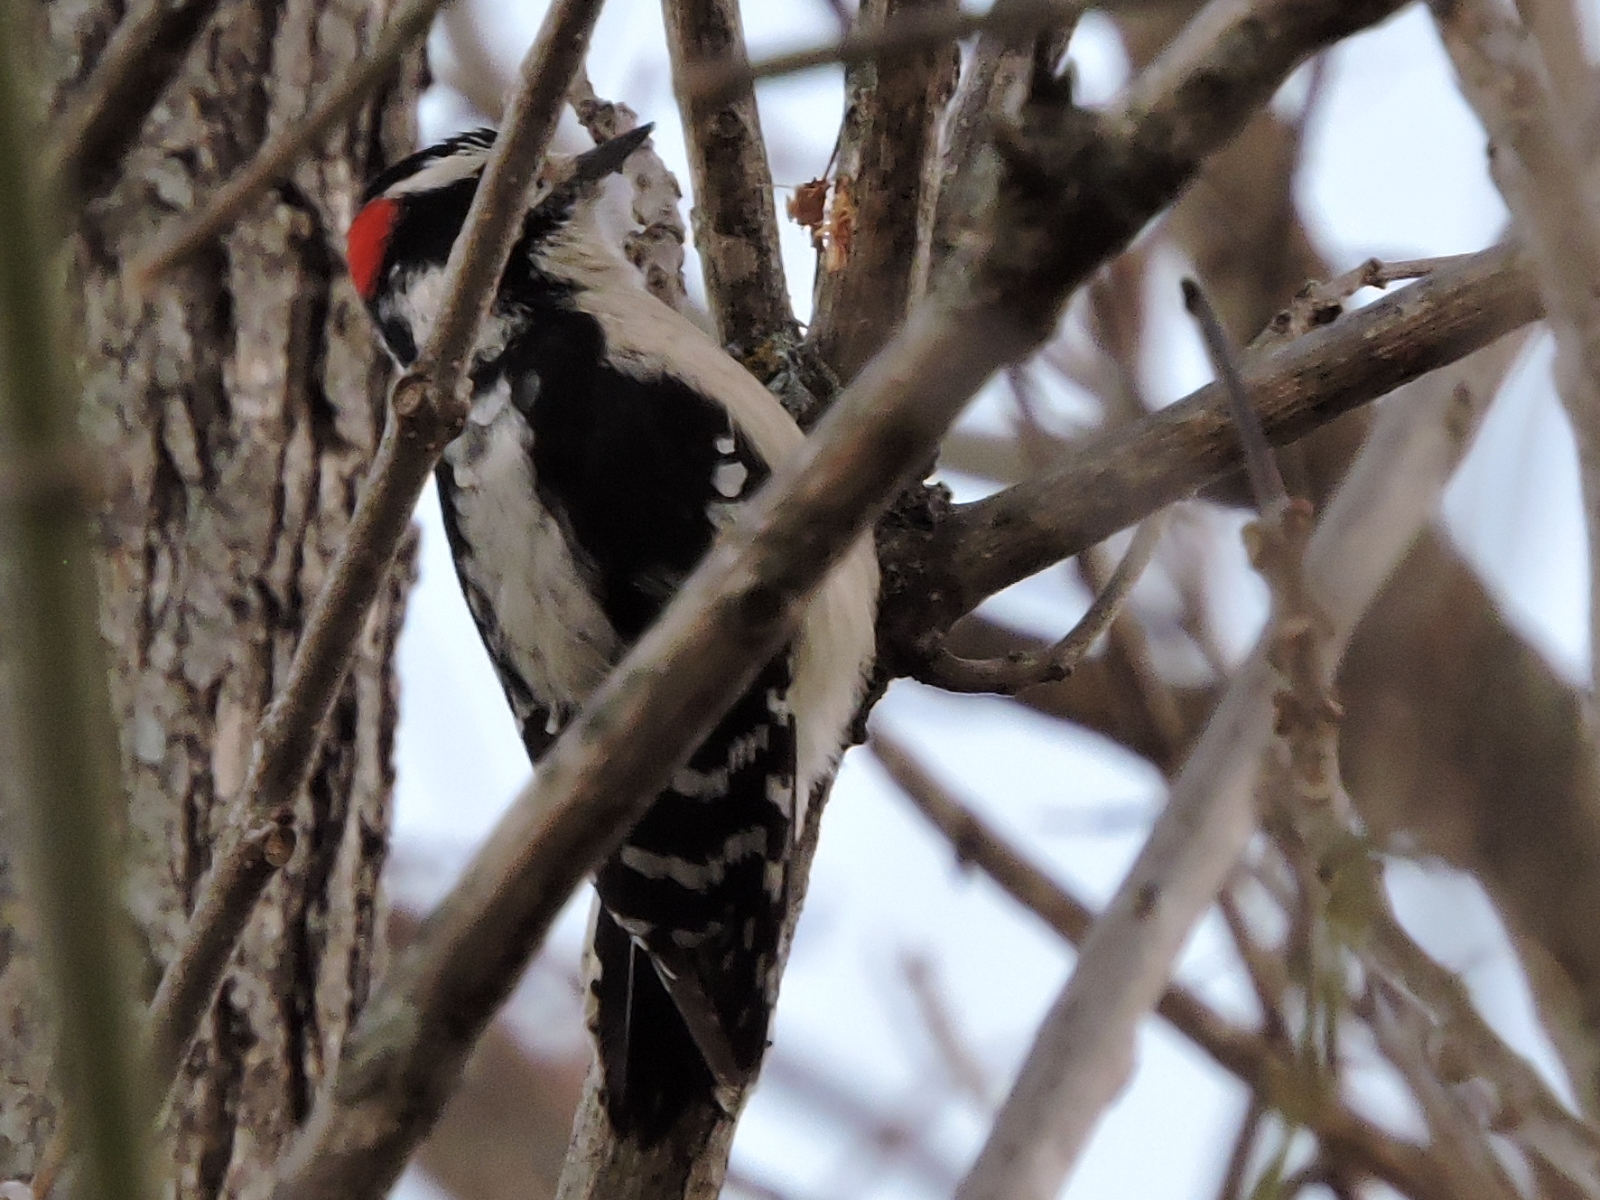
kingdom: Animalia
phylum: Chordata
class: Aves
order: Piciformes
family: Picidae
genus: Dryobates
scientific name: Dryobates pubescens
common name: Downy woodpecker
